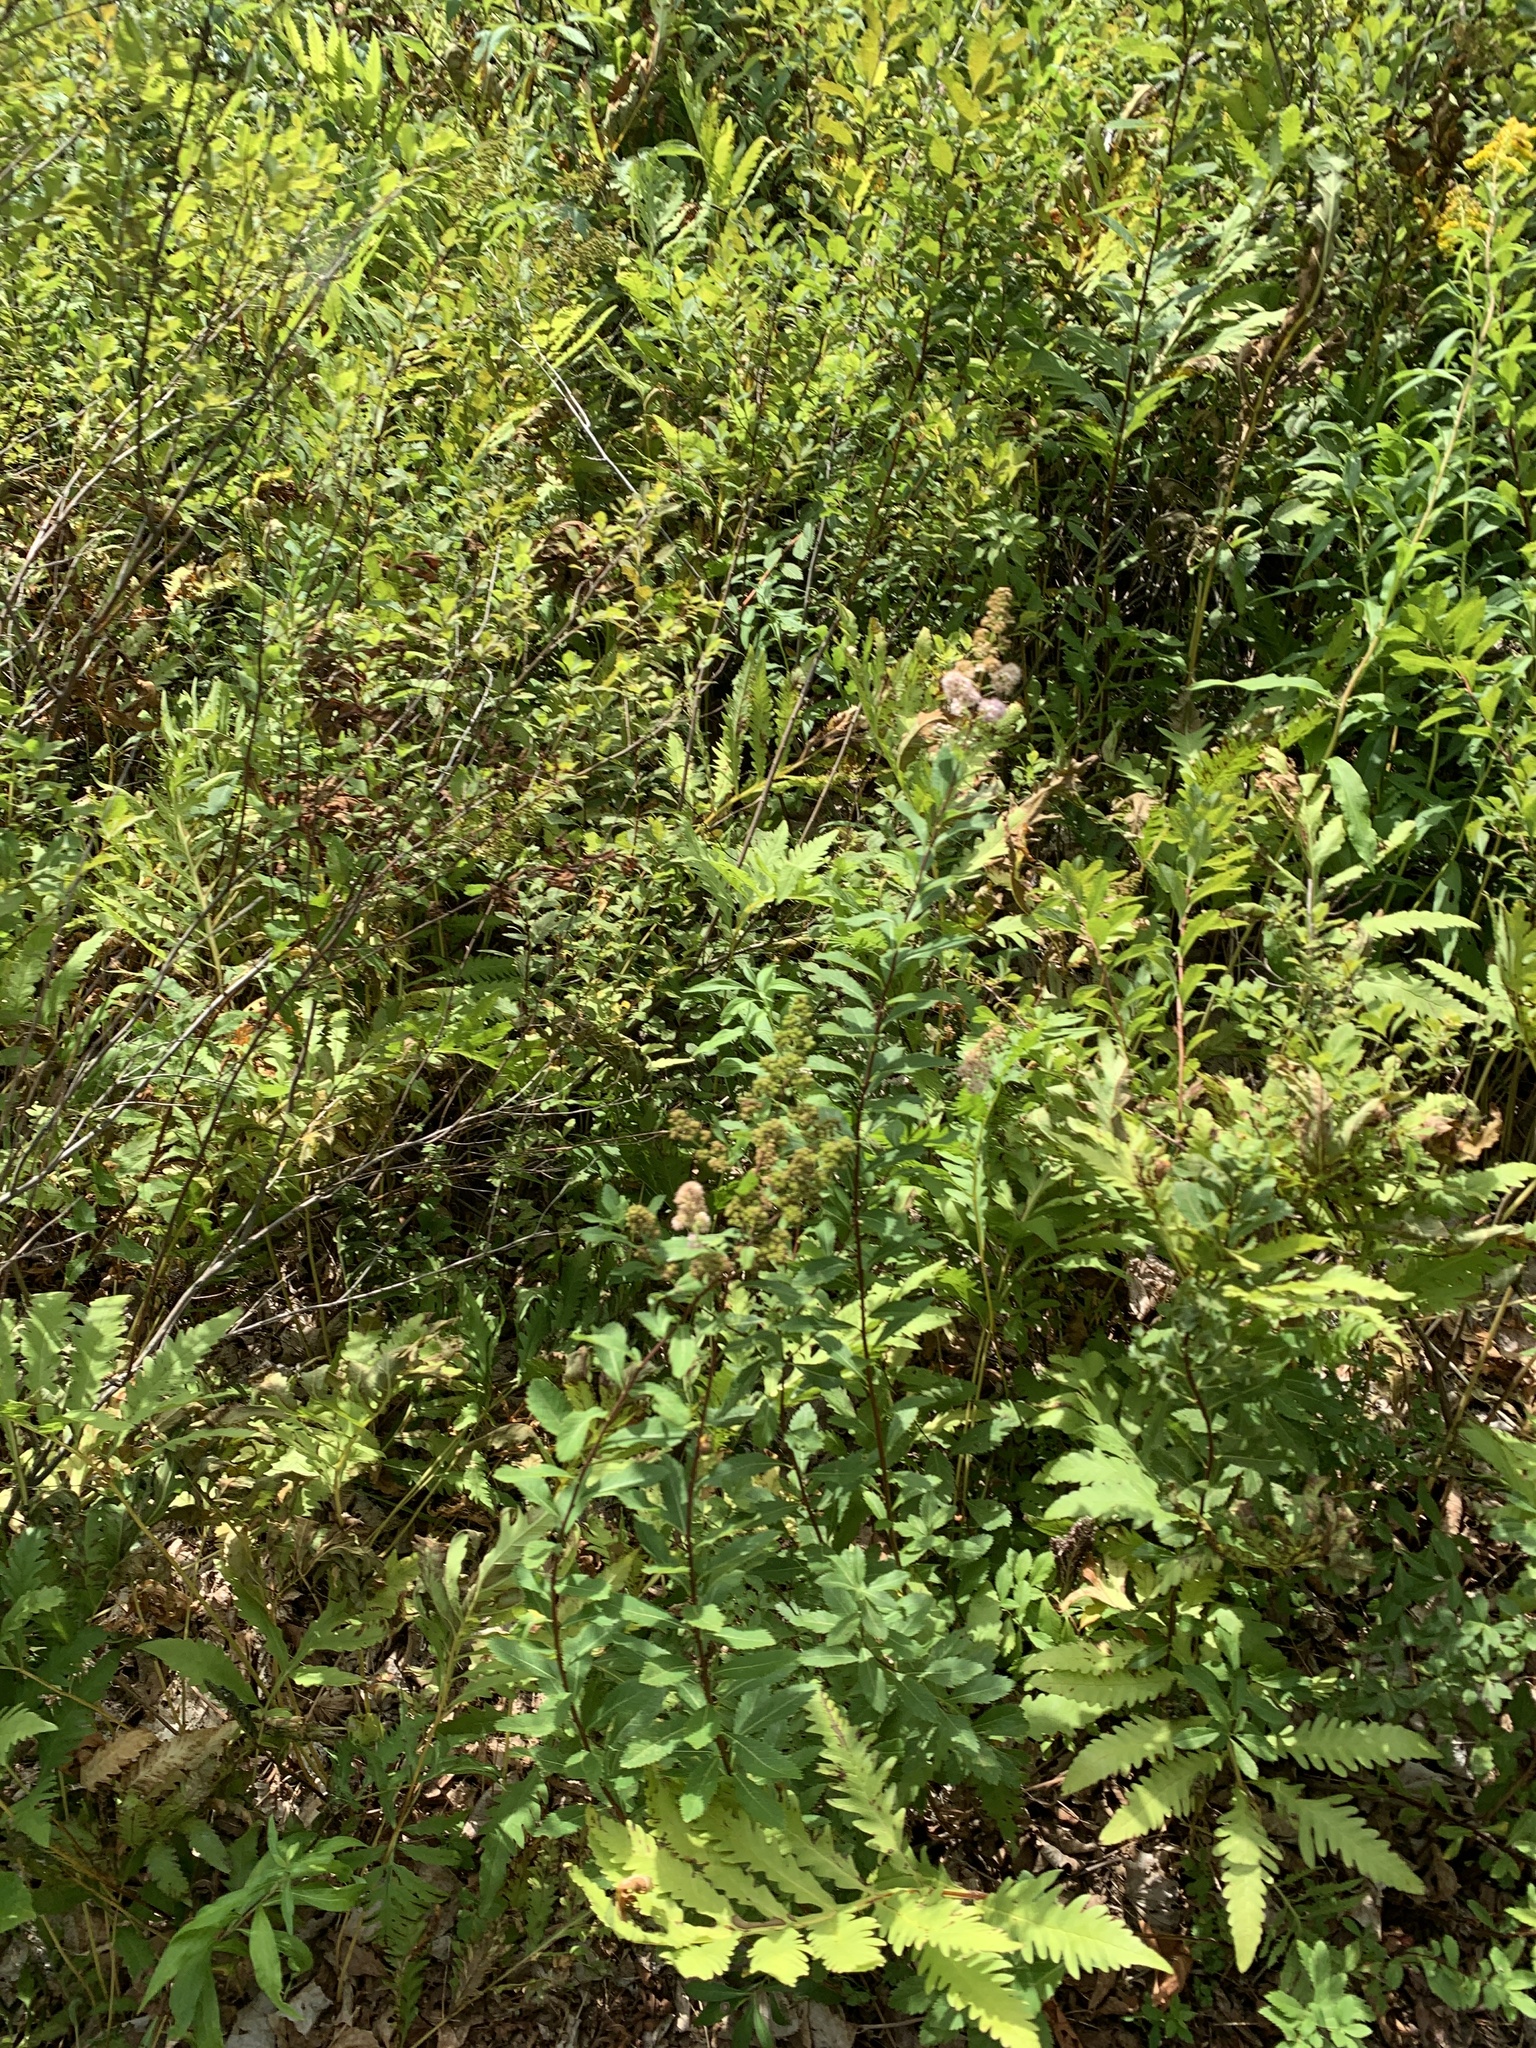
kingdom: Plantae
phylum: Tracheophyta
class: Magnoliopsida
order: Rosales
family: Rosaceae
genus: Spiraea
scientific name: Spiraea alba
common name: Pale bridewort
